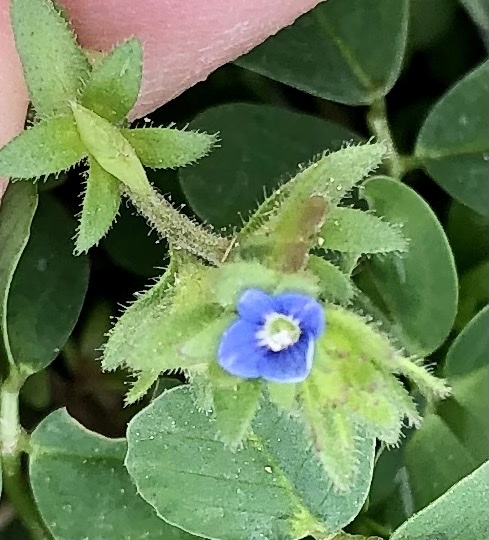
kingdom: Plantae
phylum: Tracheophyta
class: Magnoliopsida
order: Lamiales
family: Plantaginaceae
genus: Veronica
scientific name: Veronica arvensis
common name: Corn speedwell
